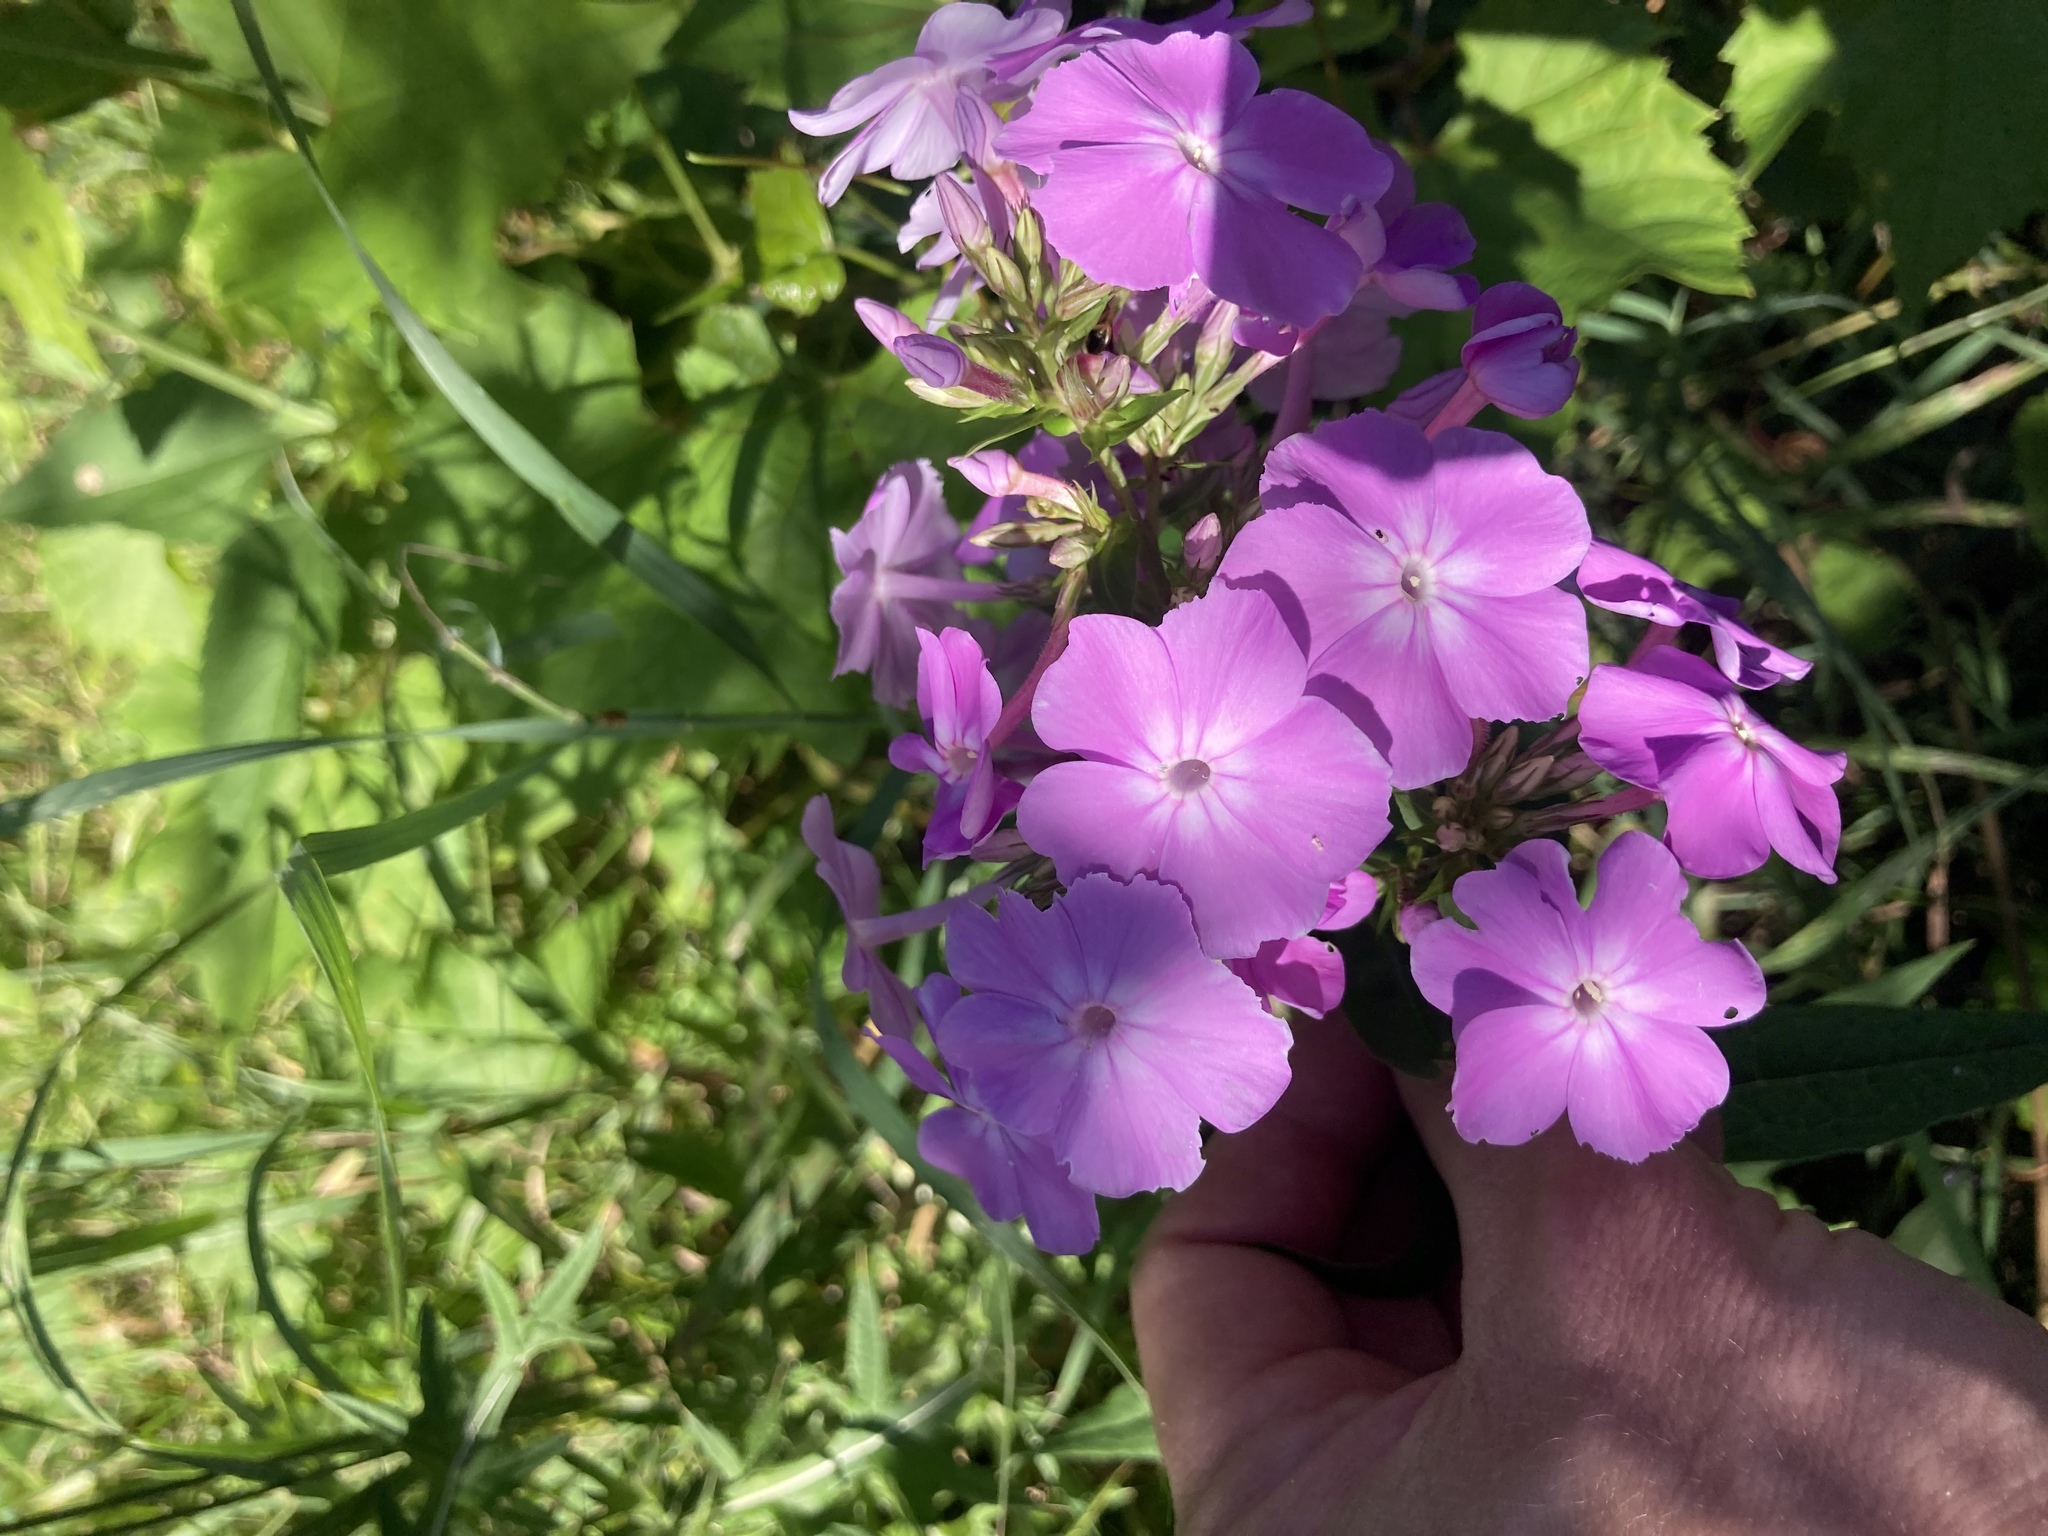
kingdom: Plantae
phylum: Tracheophyta
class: Magnoliopsida
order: Ericales
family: Polemoniaceae
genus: Phlox
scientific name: Phlox paniculata
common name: Fall phlox
